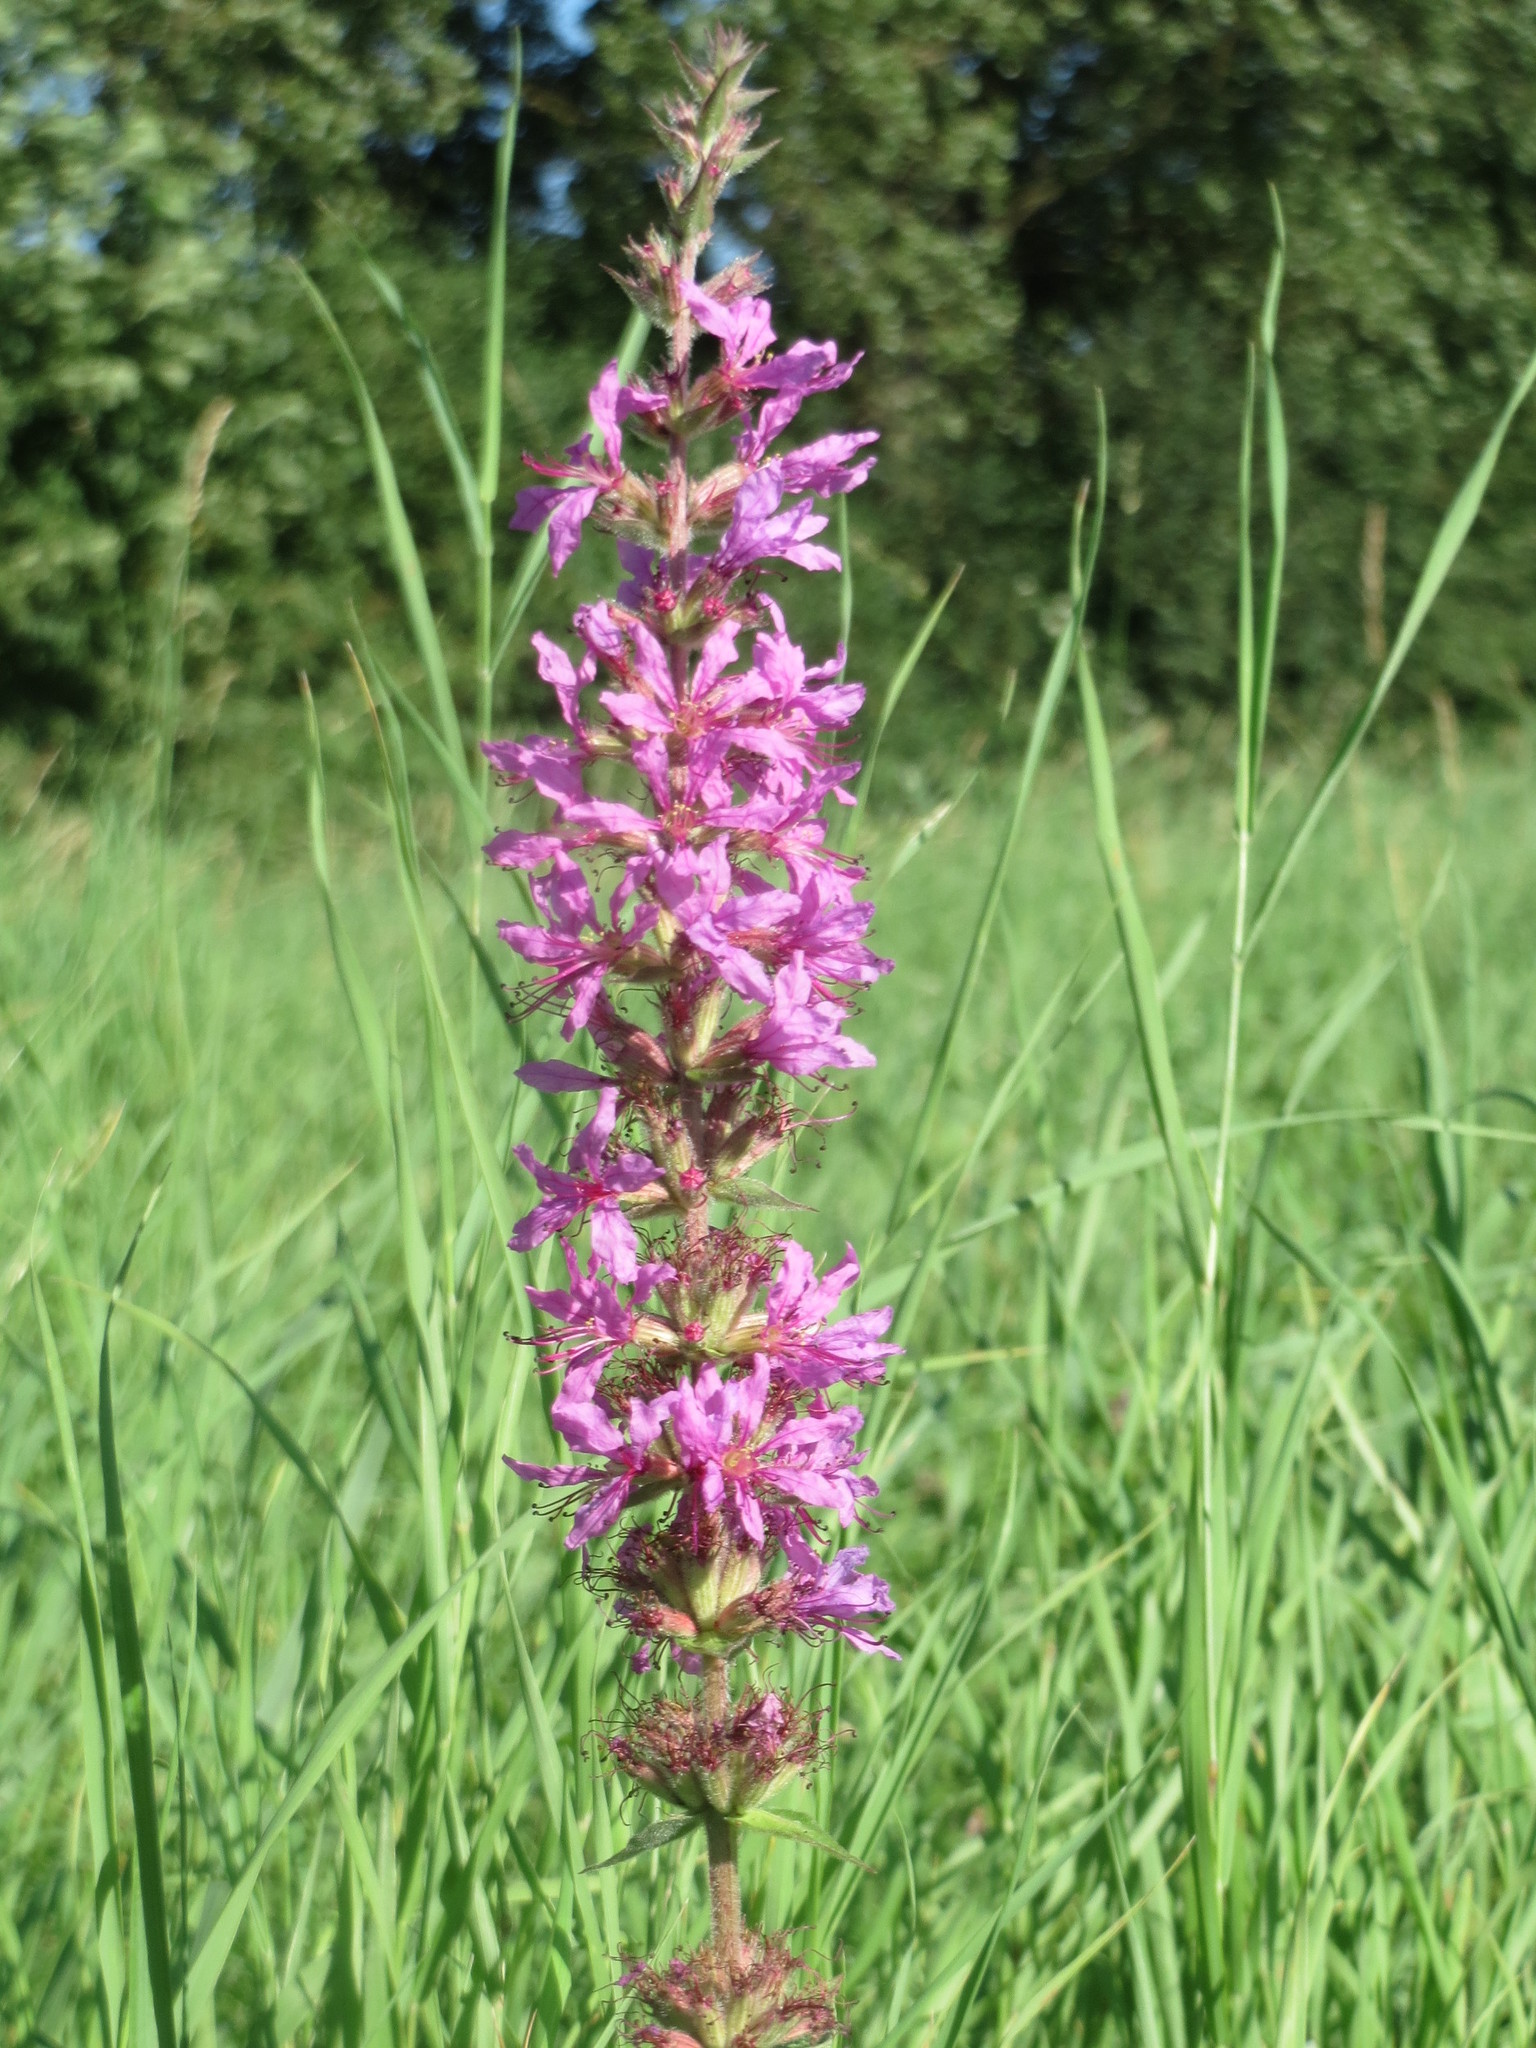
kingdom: Plantae
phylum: Tracheophyta
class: Magnoliopsida
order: Myrtales
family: Lythraceae
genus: Lythrum
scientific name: Lythrum salicaria
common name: Purple loosestrife
